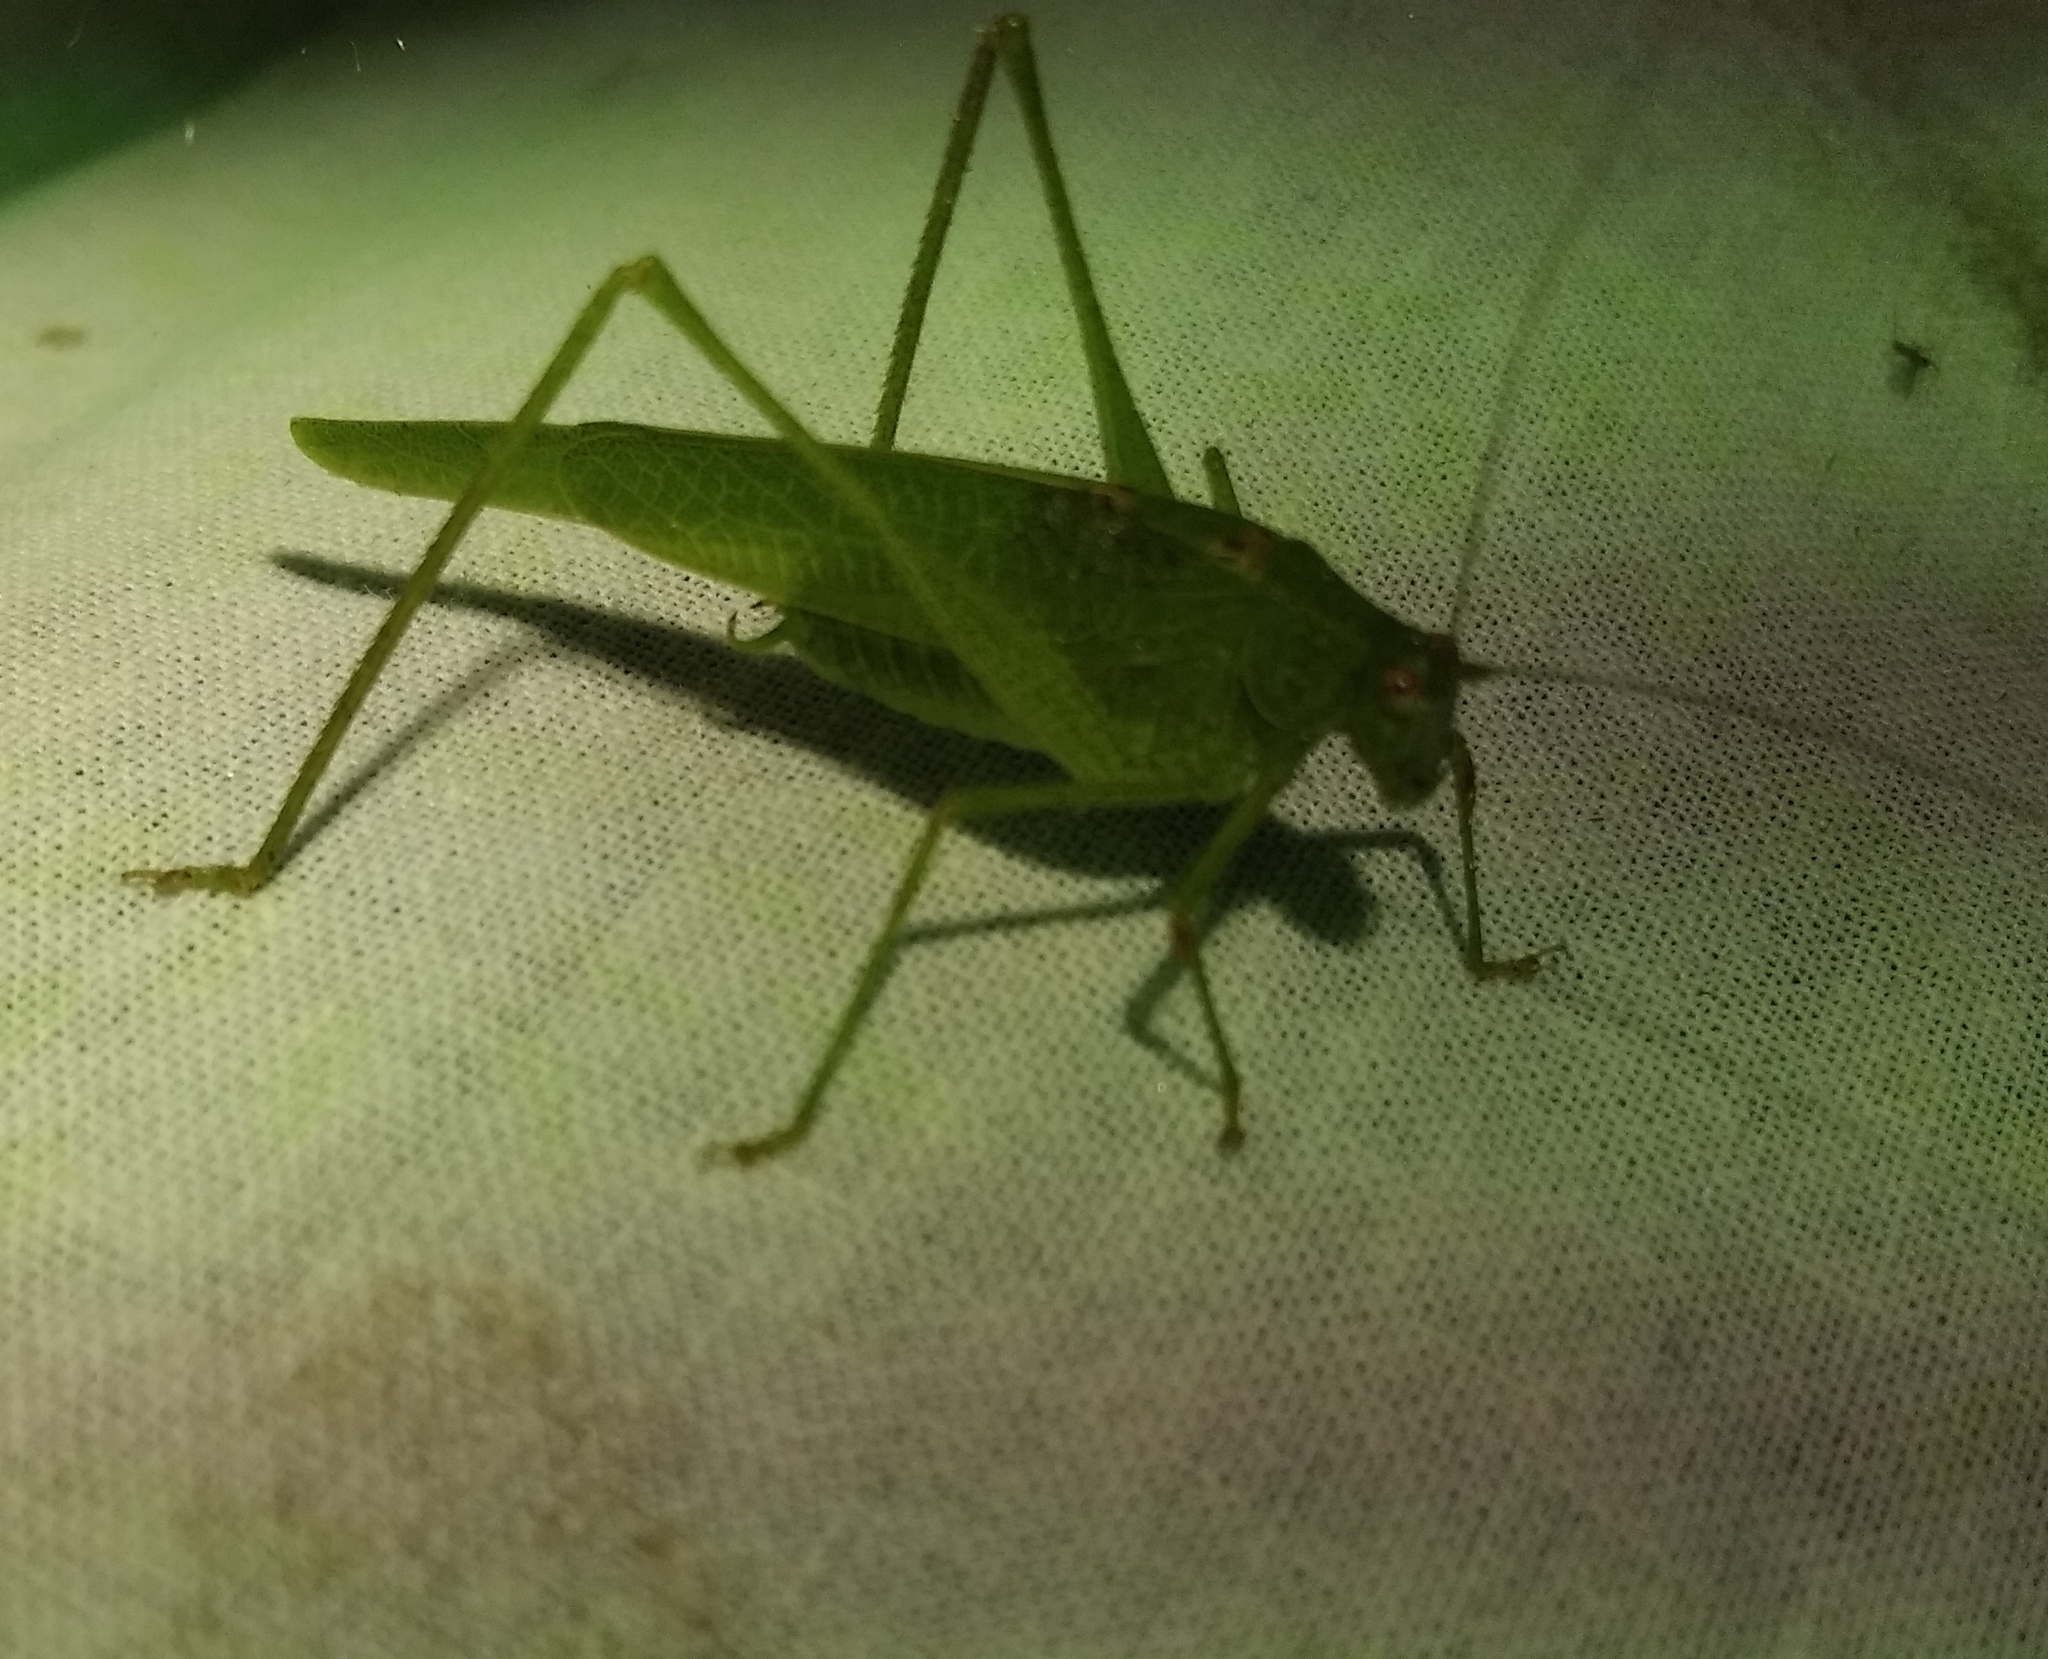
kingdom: Animalia
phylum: Arthropoda
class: Insecta
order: Orthoptera
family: Tettigoniidae
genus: Phaneroptera
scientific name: Phaneroptera nana
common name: Southern sickle bush-cricket
